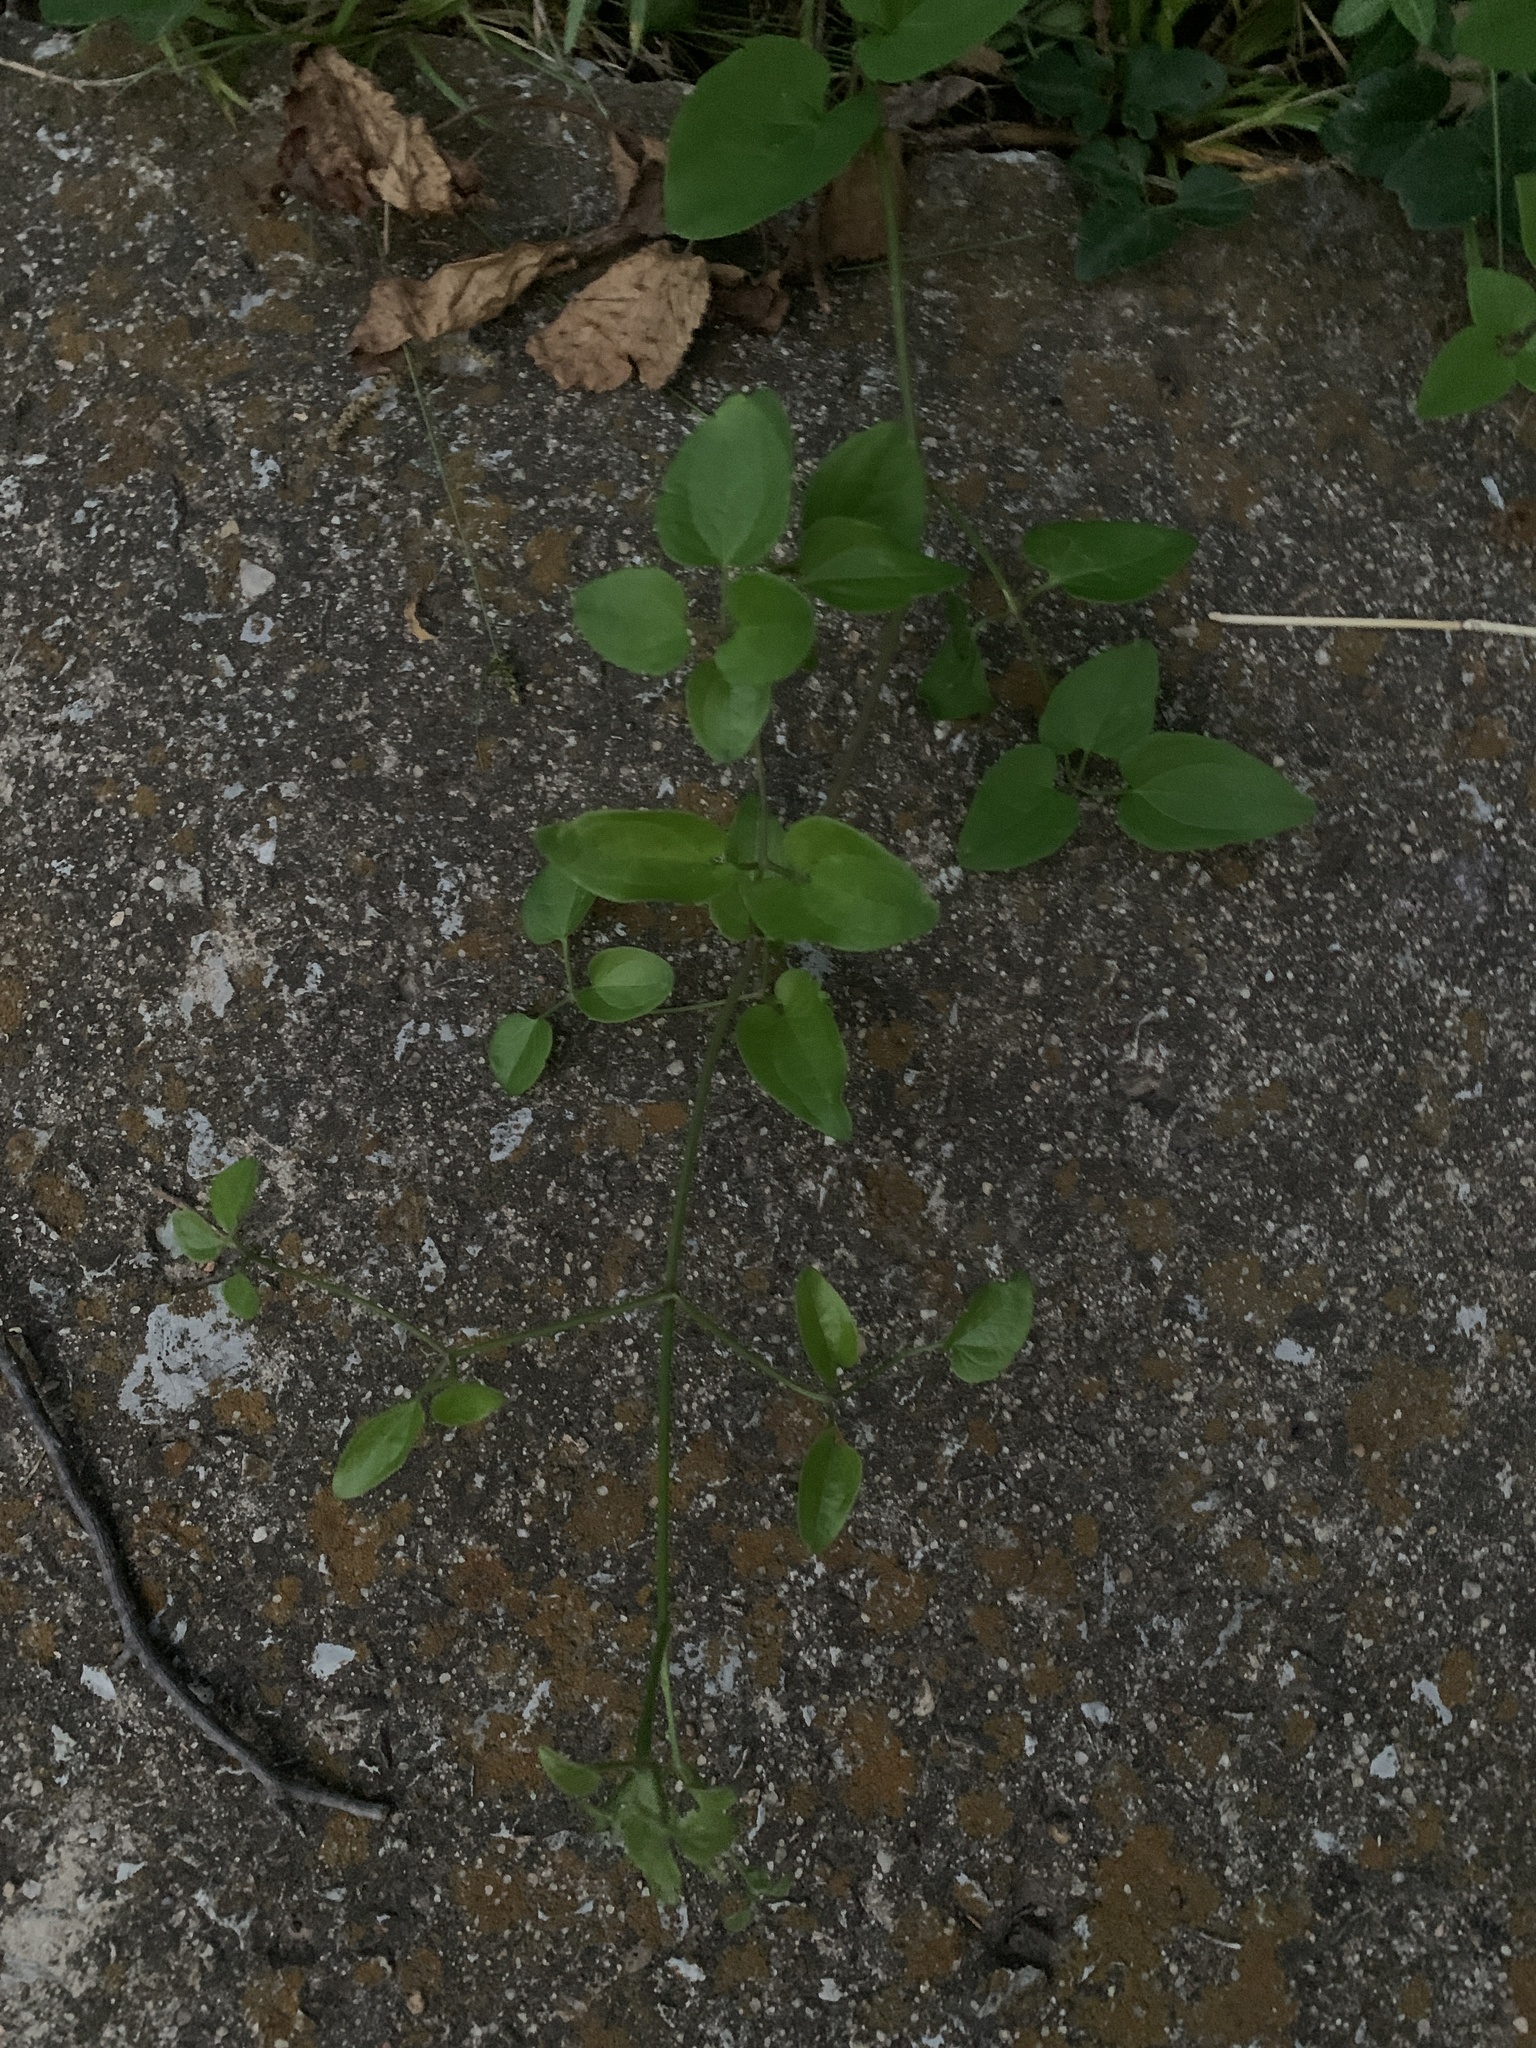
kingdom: Plantae
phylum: Tracheophyta
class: Magnoliopsida
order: Ranunculales
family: Ranunculaceae
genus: Clematis
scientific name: Clematis terniflora
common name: Sweet autumn clematis
